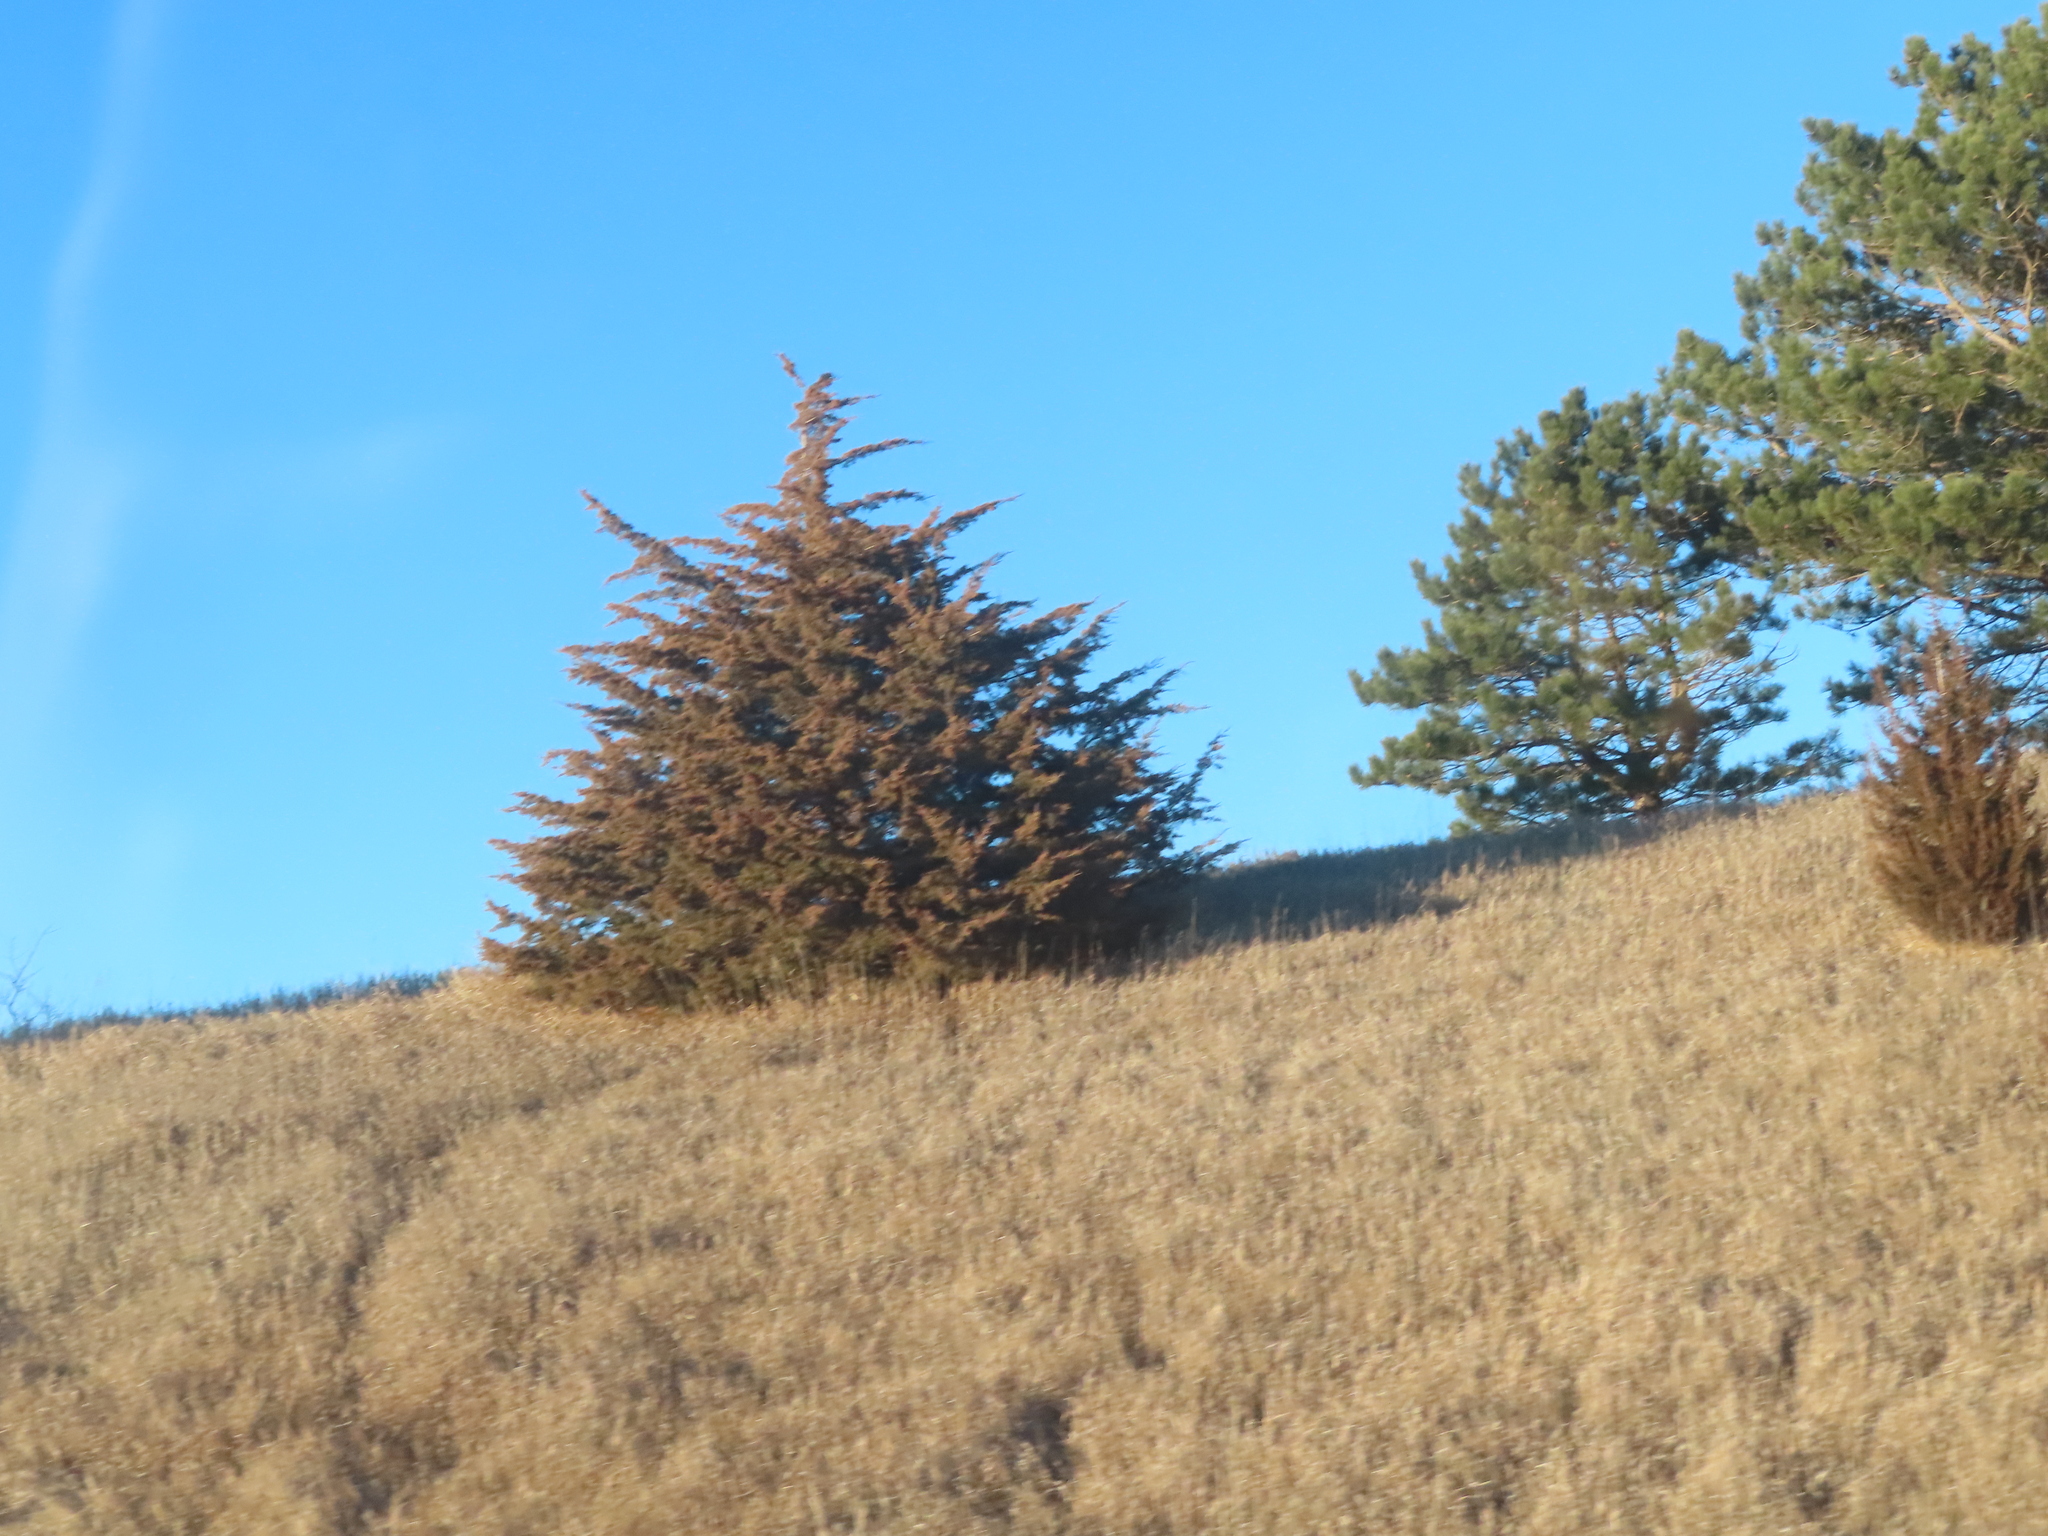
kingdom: Plantae
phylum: Tracheophyta
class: Pinopsida
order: Pinales
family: Cupressaceae
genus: Juniperus
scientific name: Juniperus virginiana
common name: Red juniper
